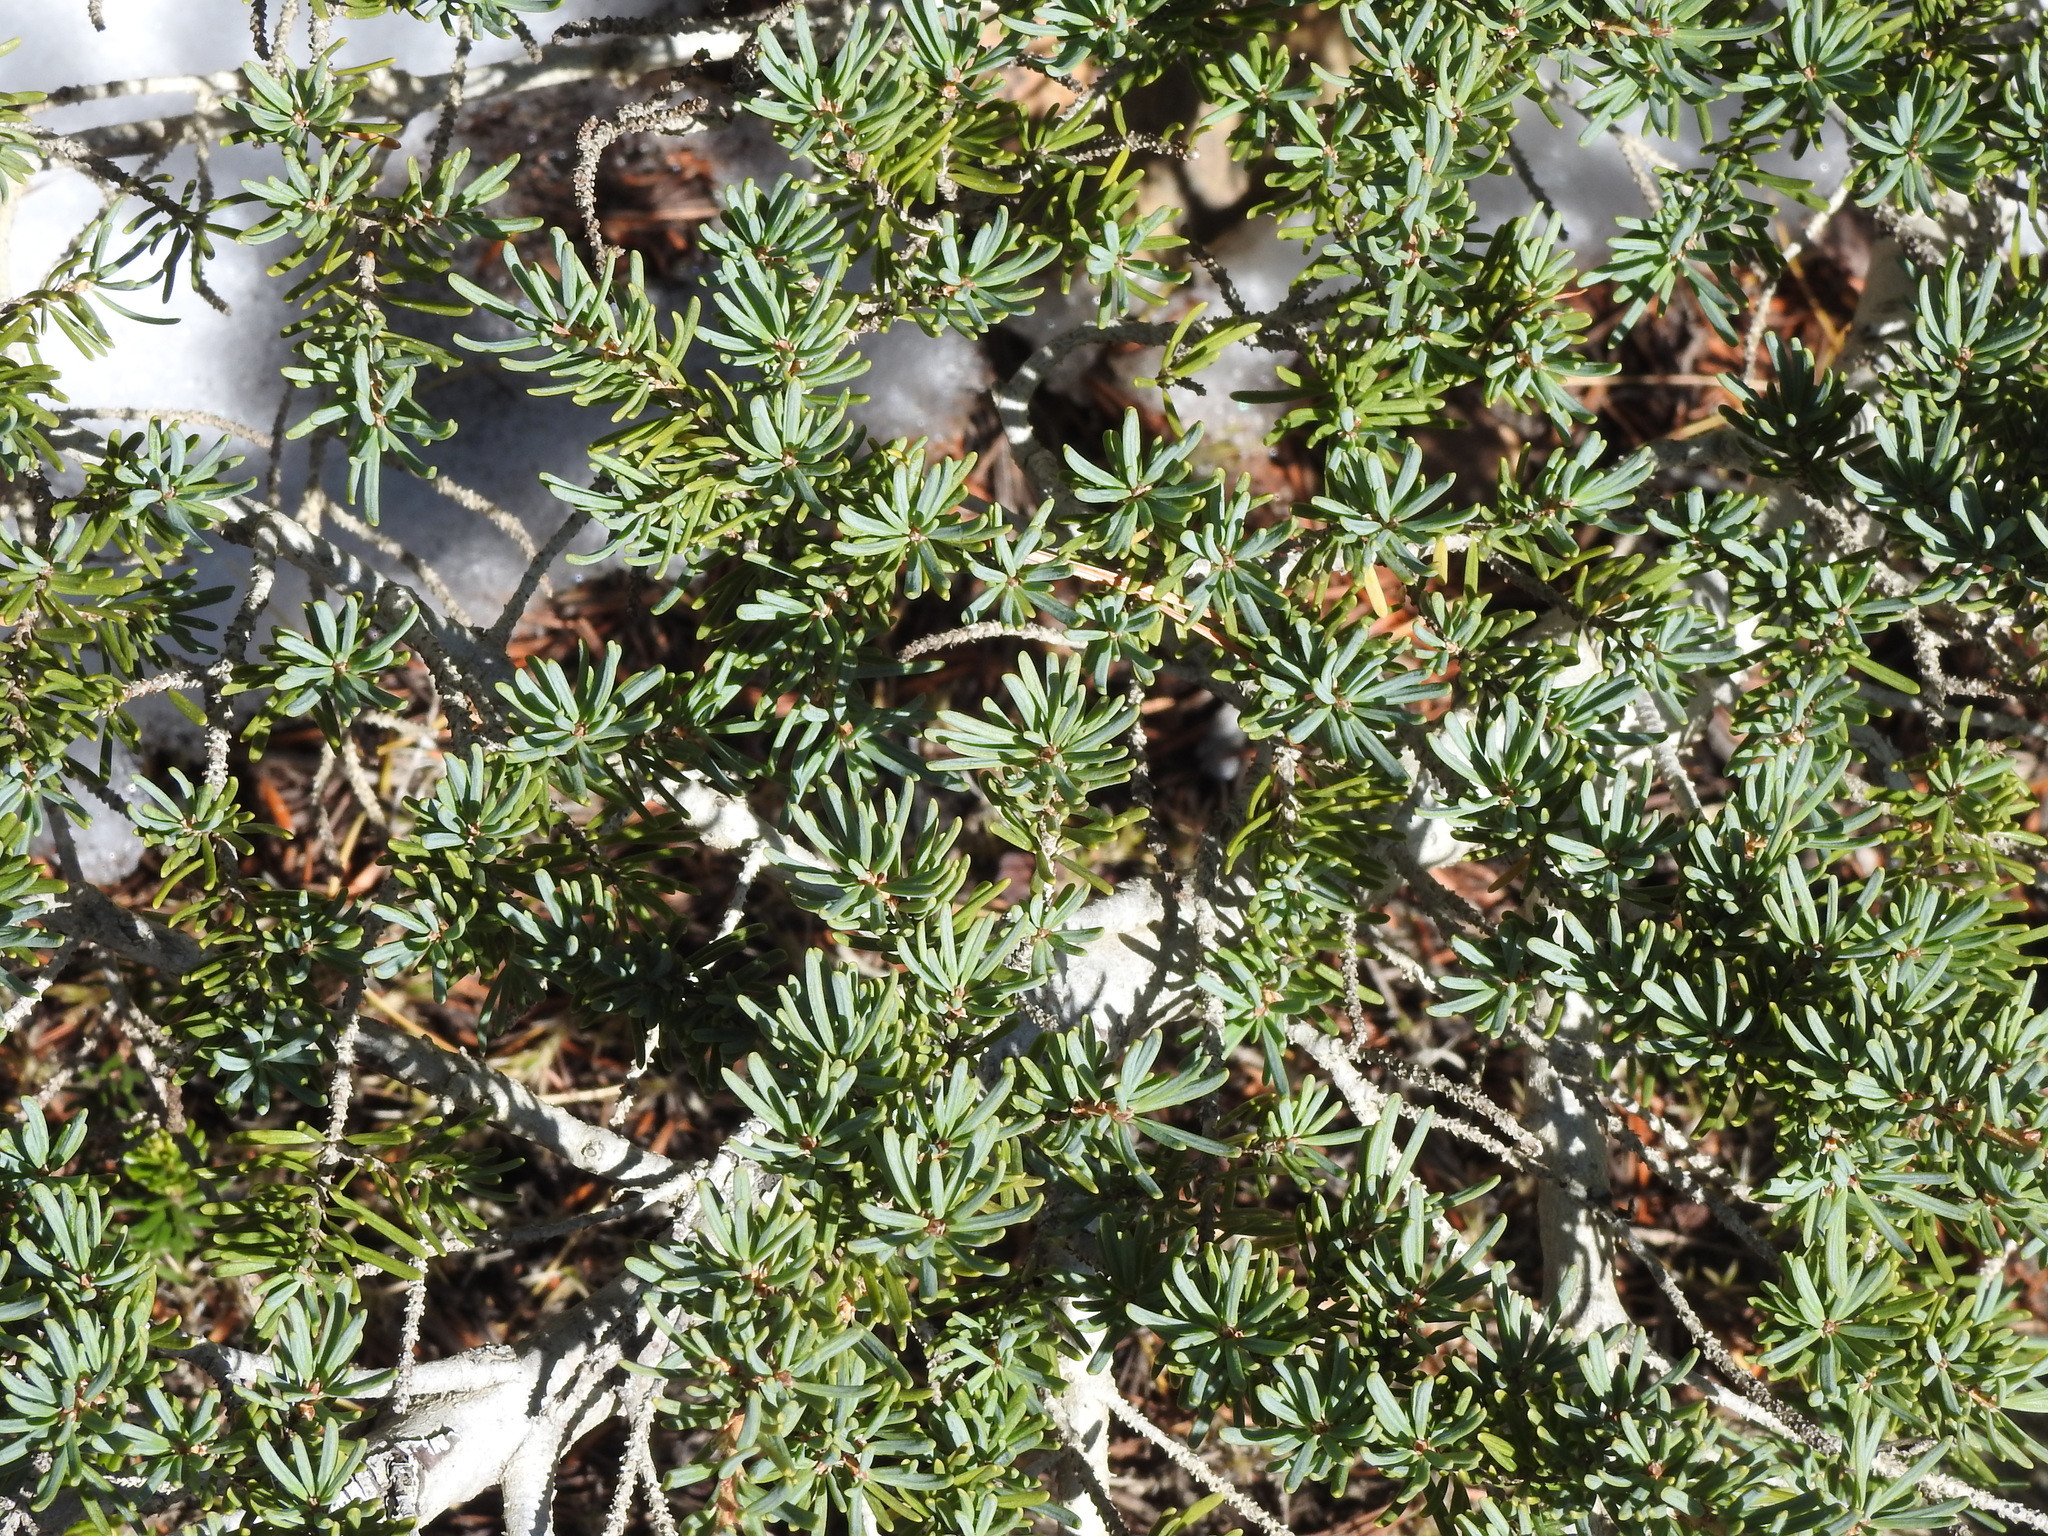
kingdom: Plantae
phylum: Tracheophyta
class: Pinopsida
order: Pinales
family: Pinaceae
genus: Tsuga
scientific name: Tsuga mertensiana
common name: Mountain hemlock
